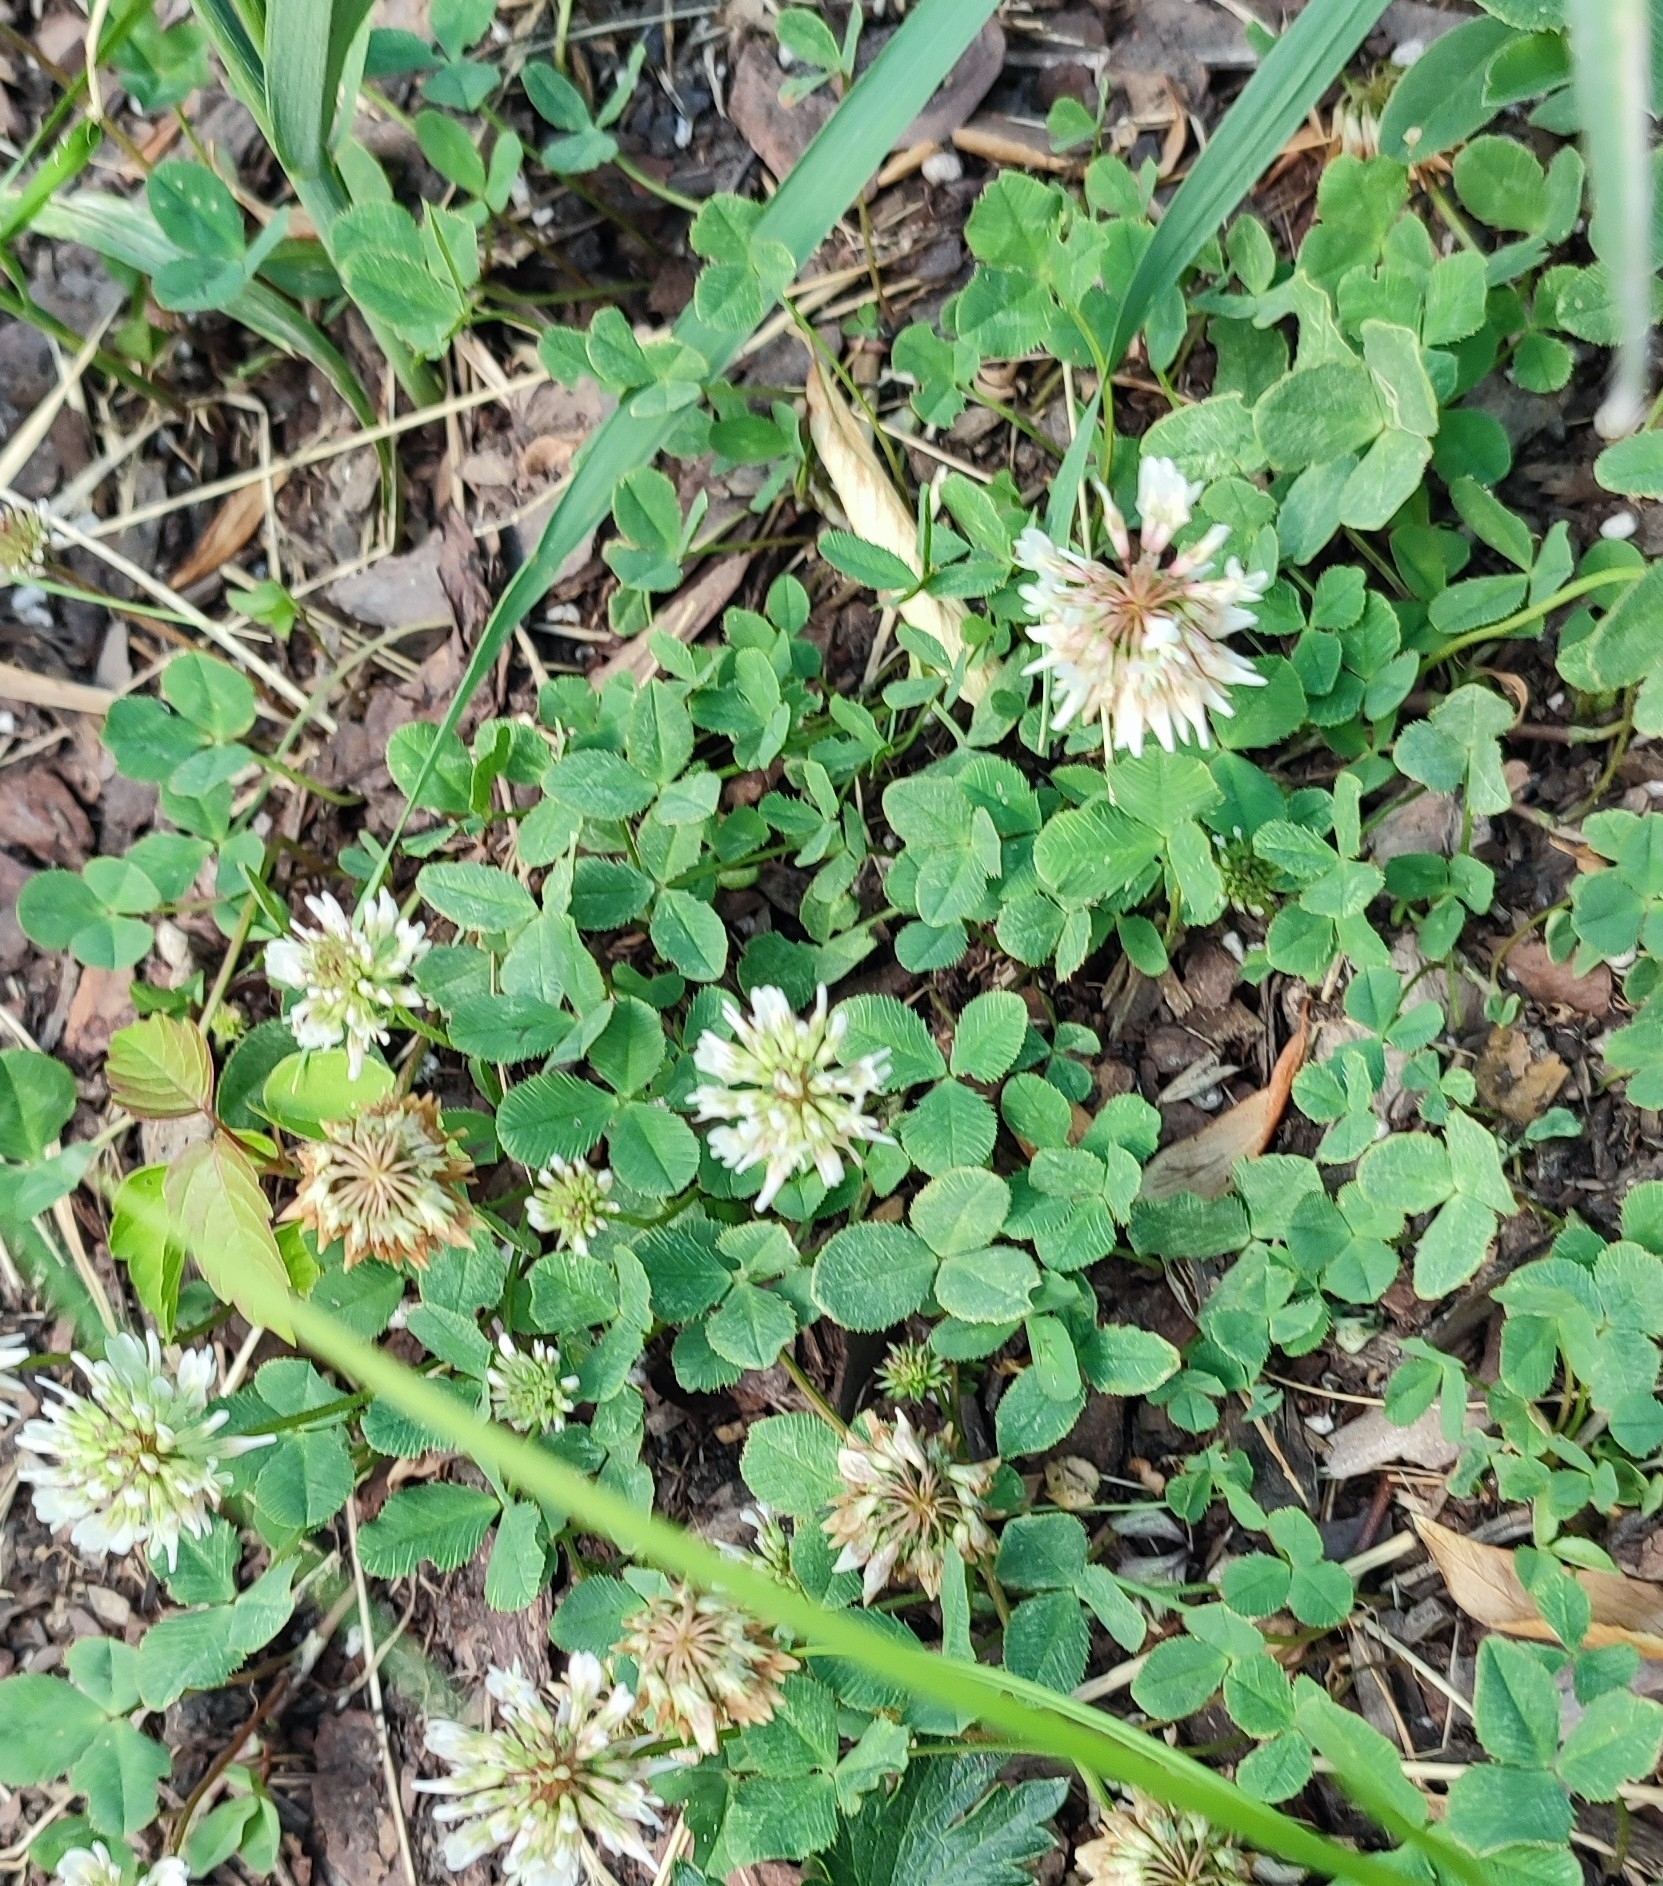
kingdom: Plantae
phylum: Tracheophyta
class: Magnoliopsida
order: Fabales
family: Fabaceae
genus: Trifolium
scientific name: Trifolium repens
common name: White clover
